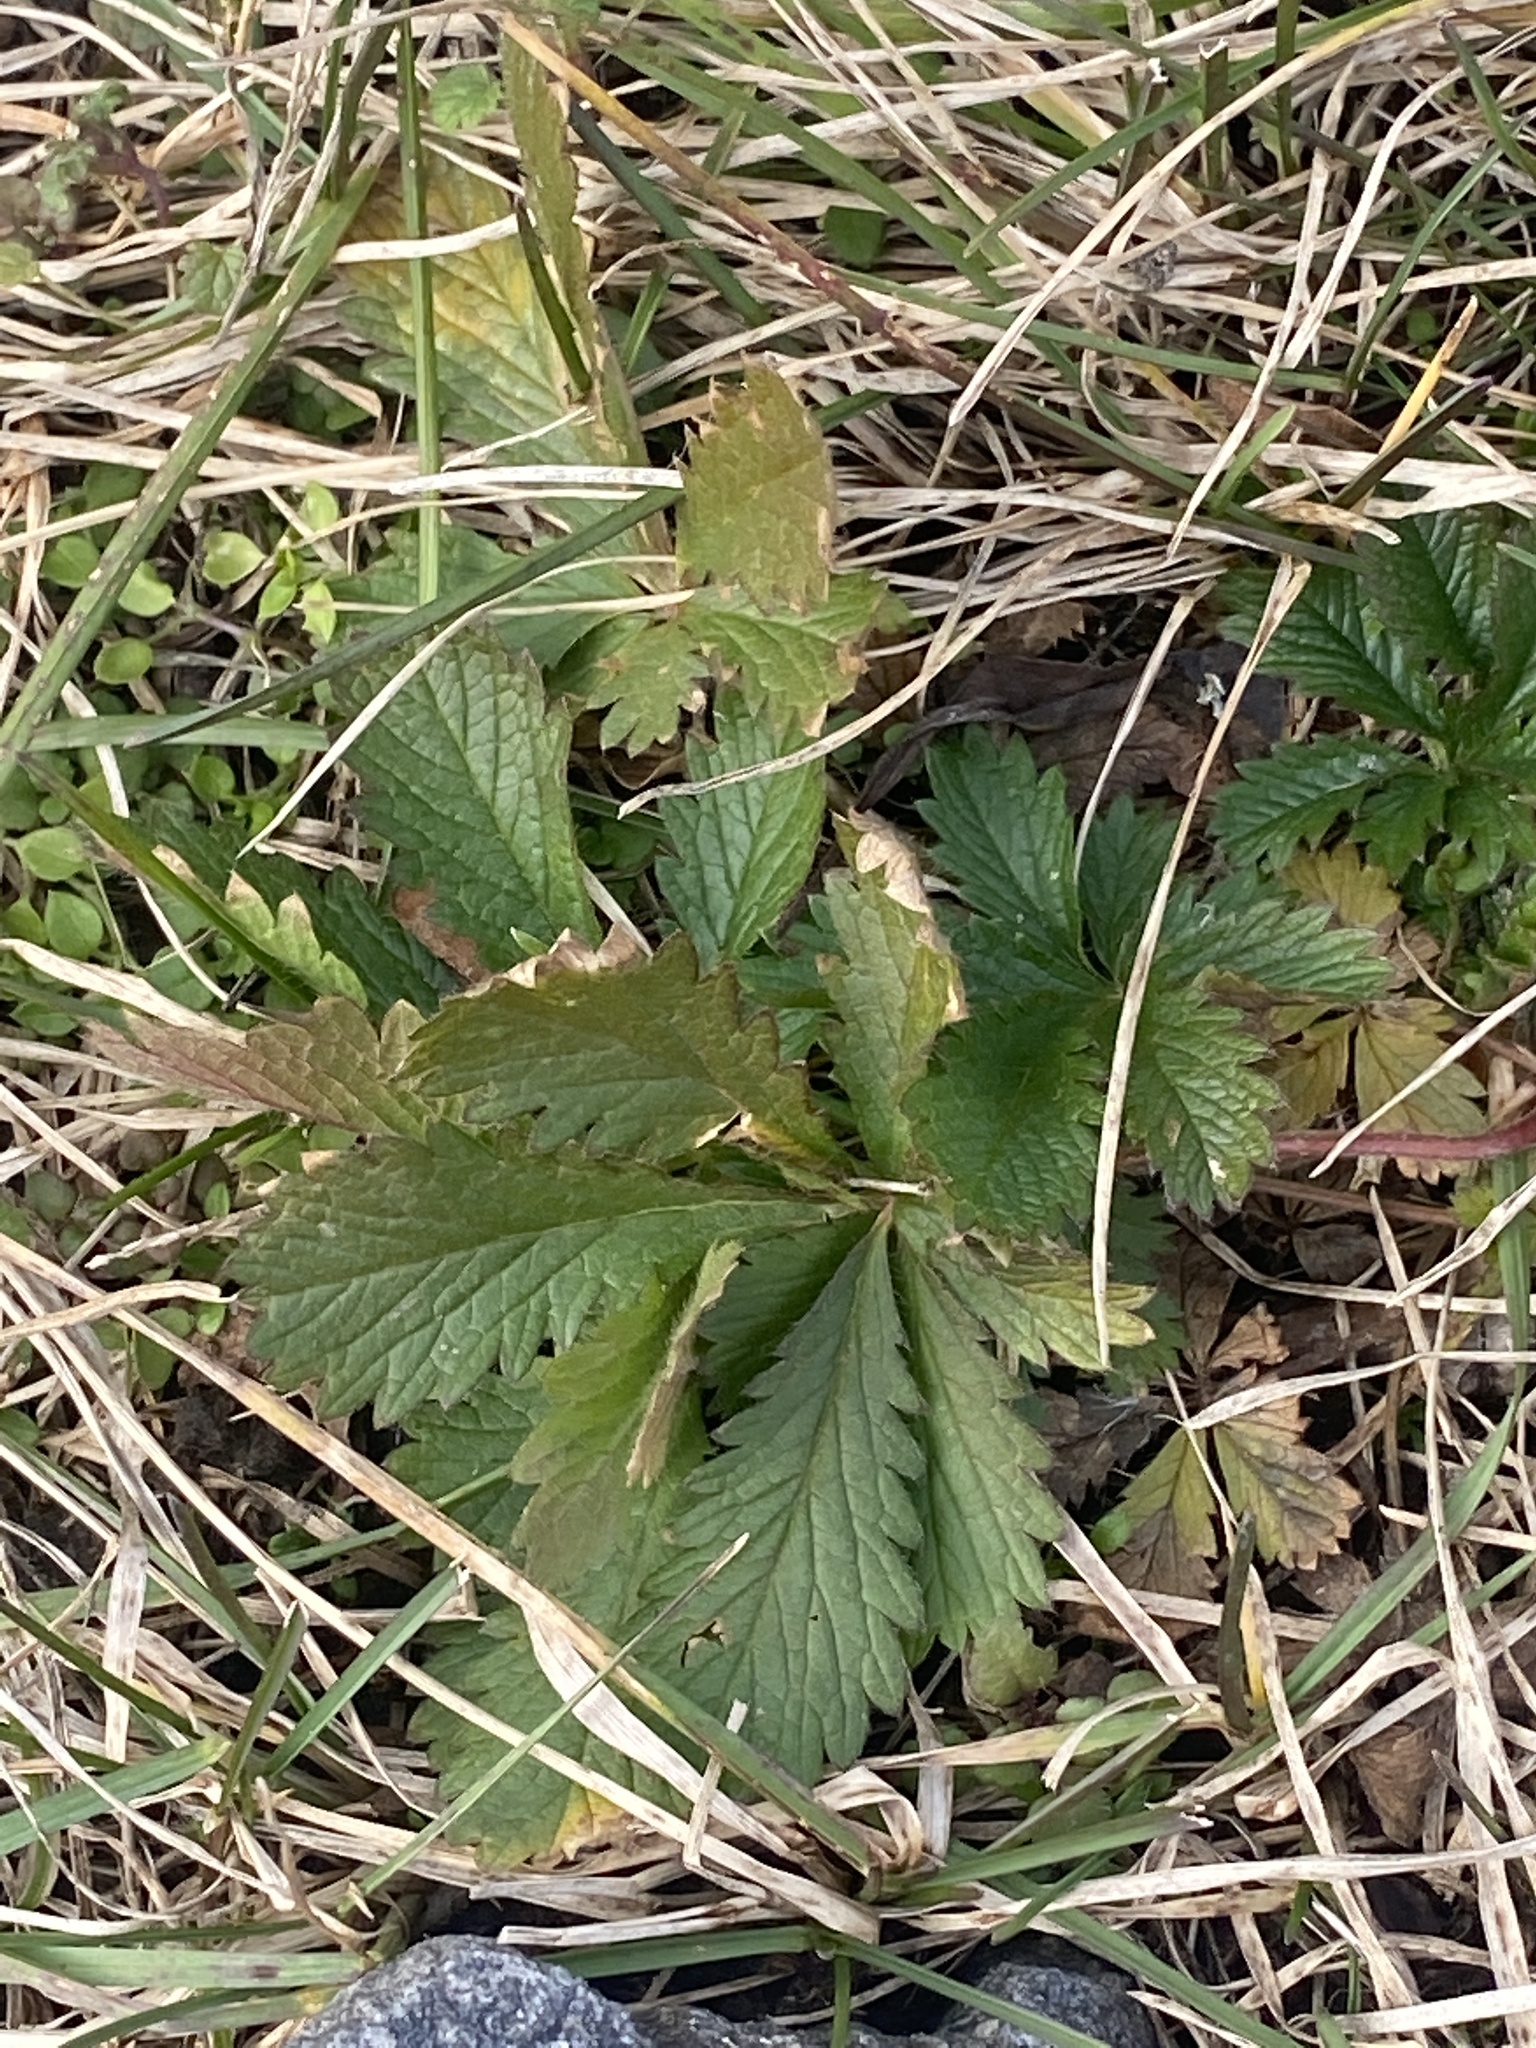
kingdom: Plantae
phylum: Tracheophyta
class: Magnoliopsida
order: Rosales
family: Rosaceae
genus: Potentilla
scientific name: Potentilla recta
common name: Sulphur cinquefoil
